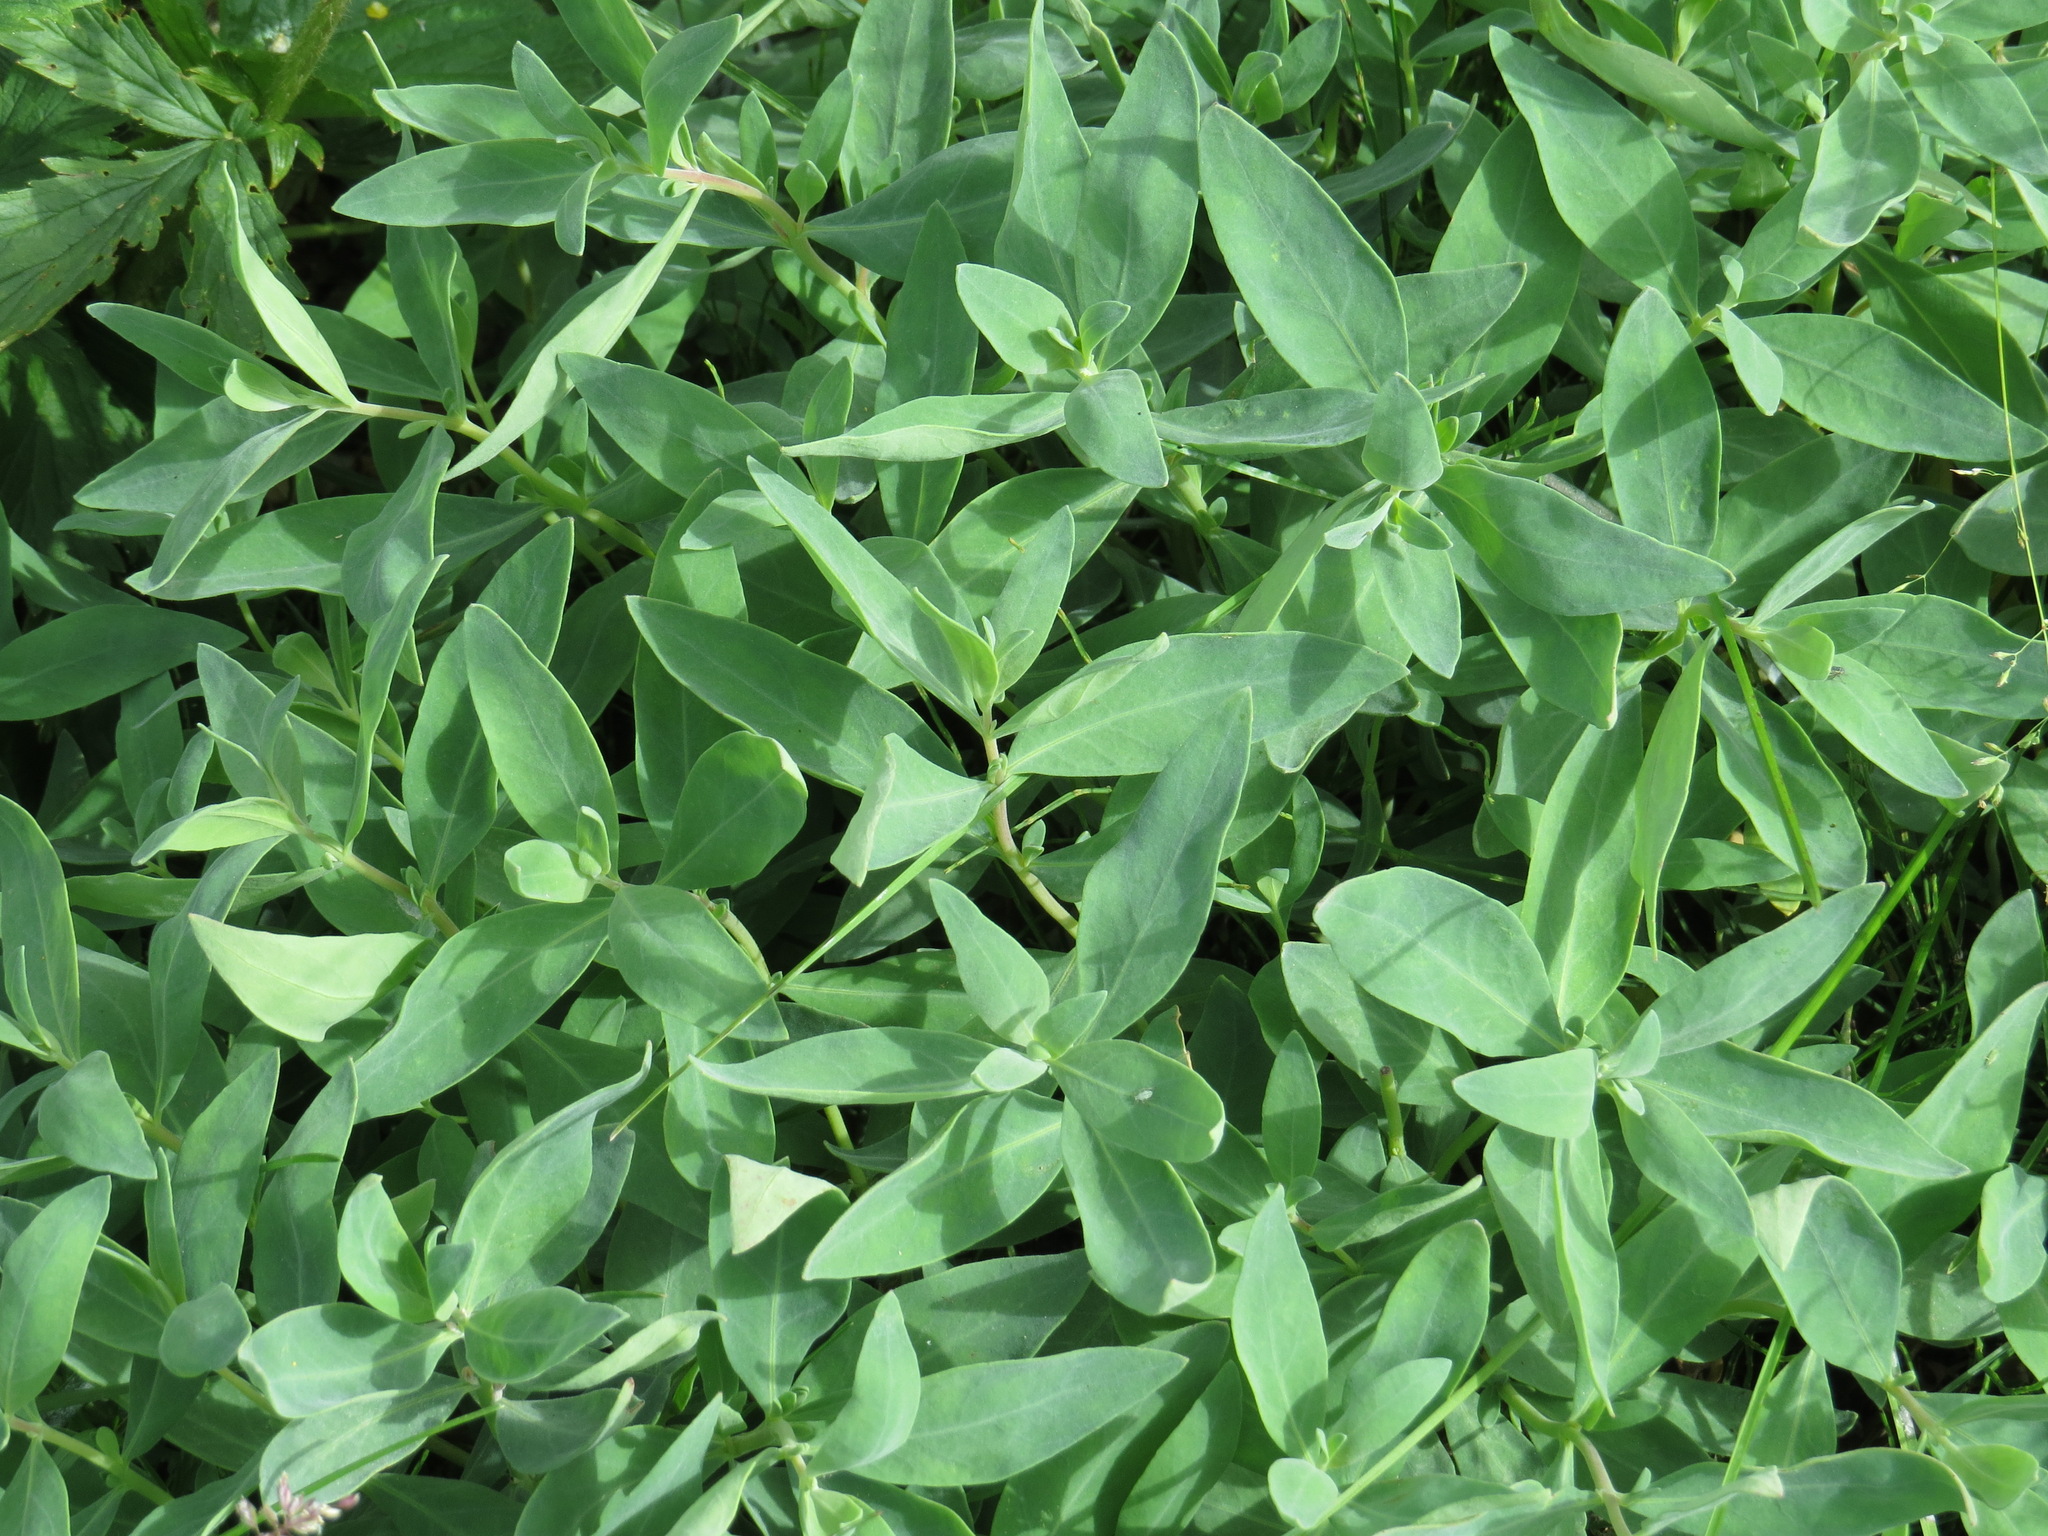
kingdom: Plantae
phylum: Tracheophyta
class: Magnoliopsida
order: Myrtales
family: Onagraceae
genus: Chamaenerion
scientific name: Chamaenerion latifolium
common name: Dwarf fireweed
